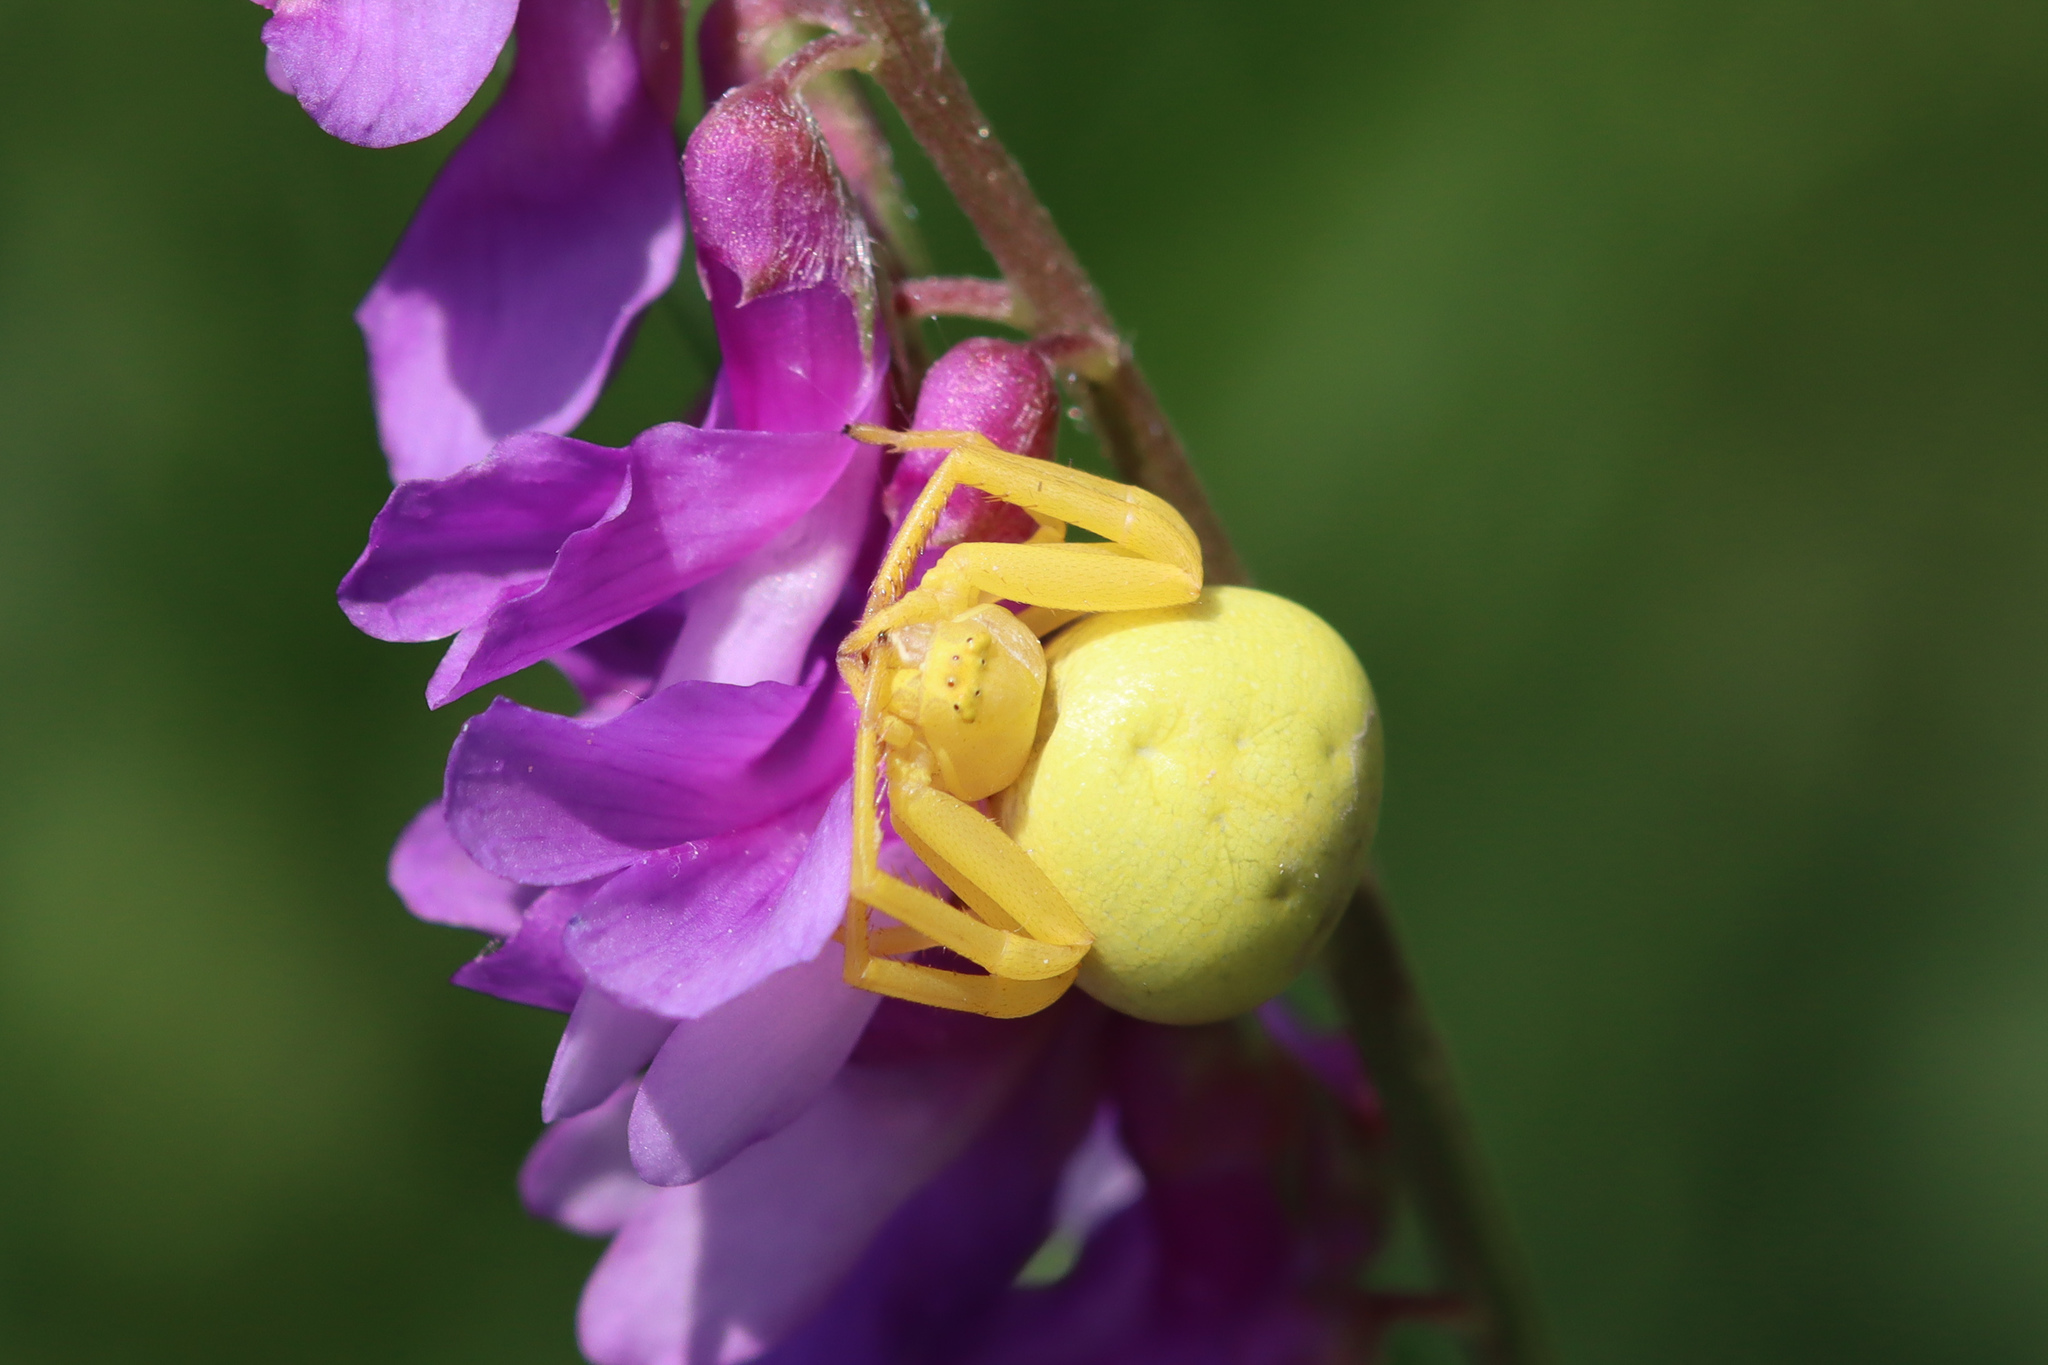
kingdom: Animalia
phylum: Arthropoda
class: Arachnida
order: Araneae
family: Thomisidae
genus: Misumena
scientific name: Misumena vatia
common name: Goldenrod crab spider
